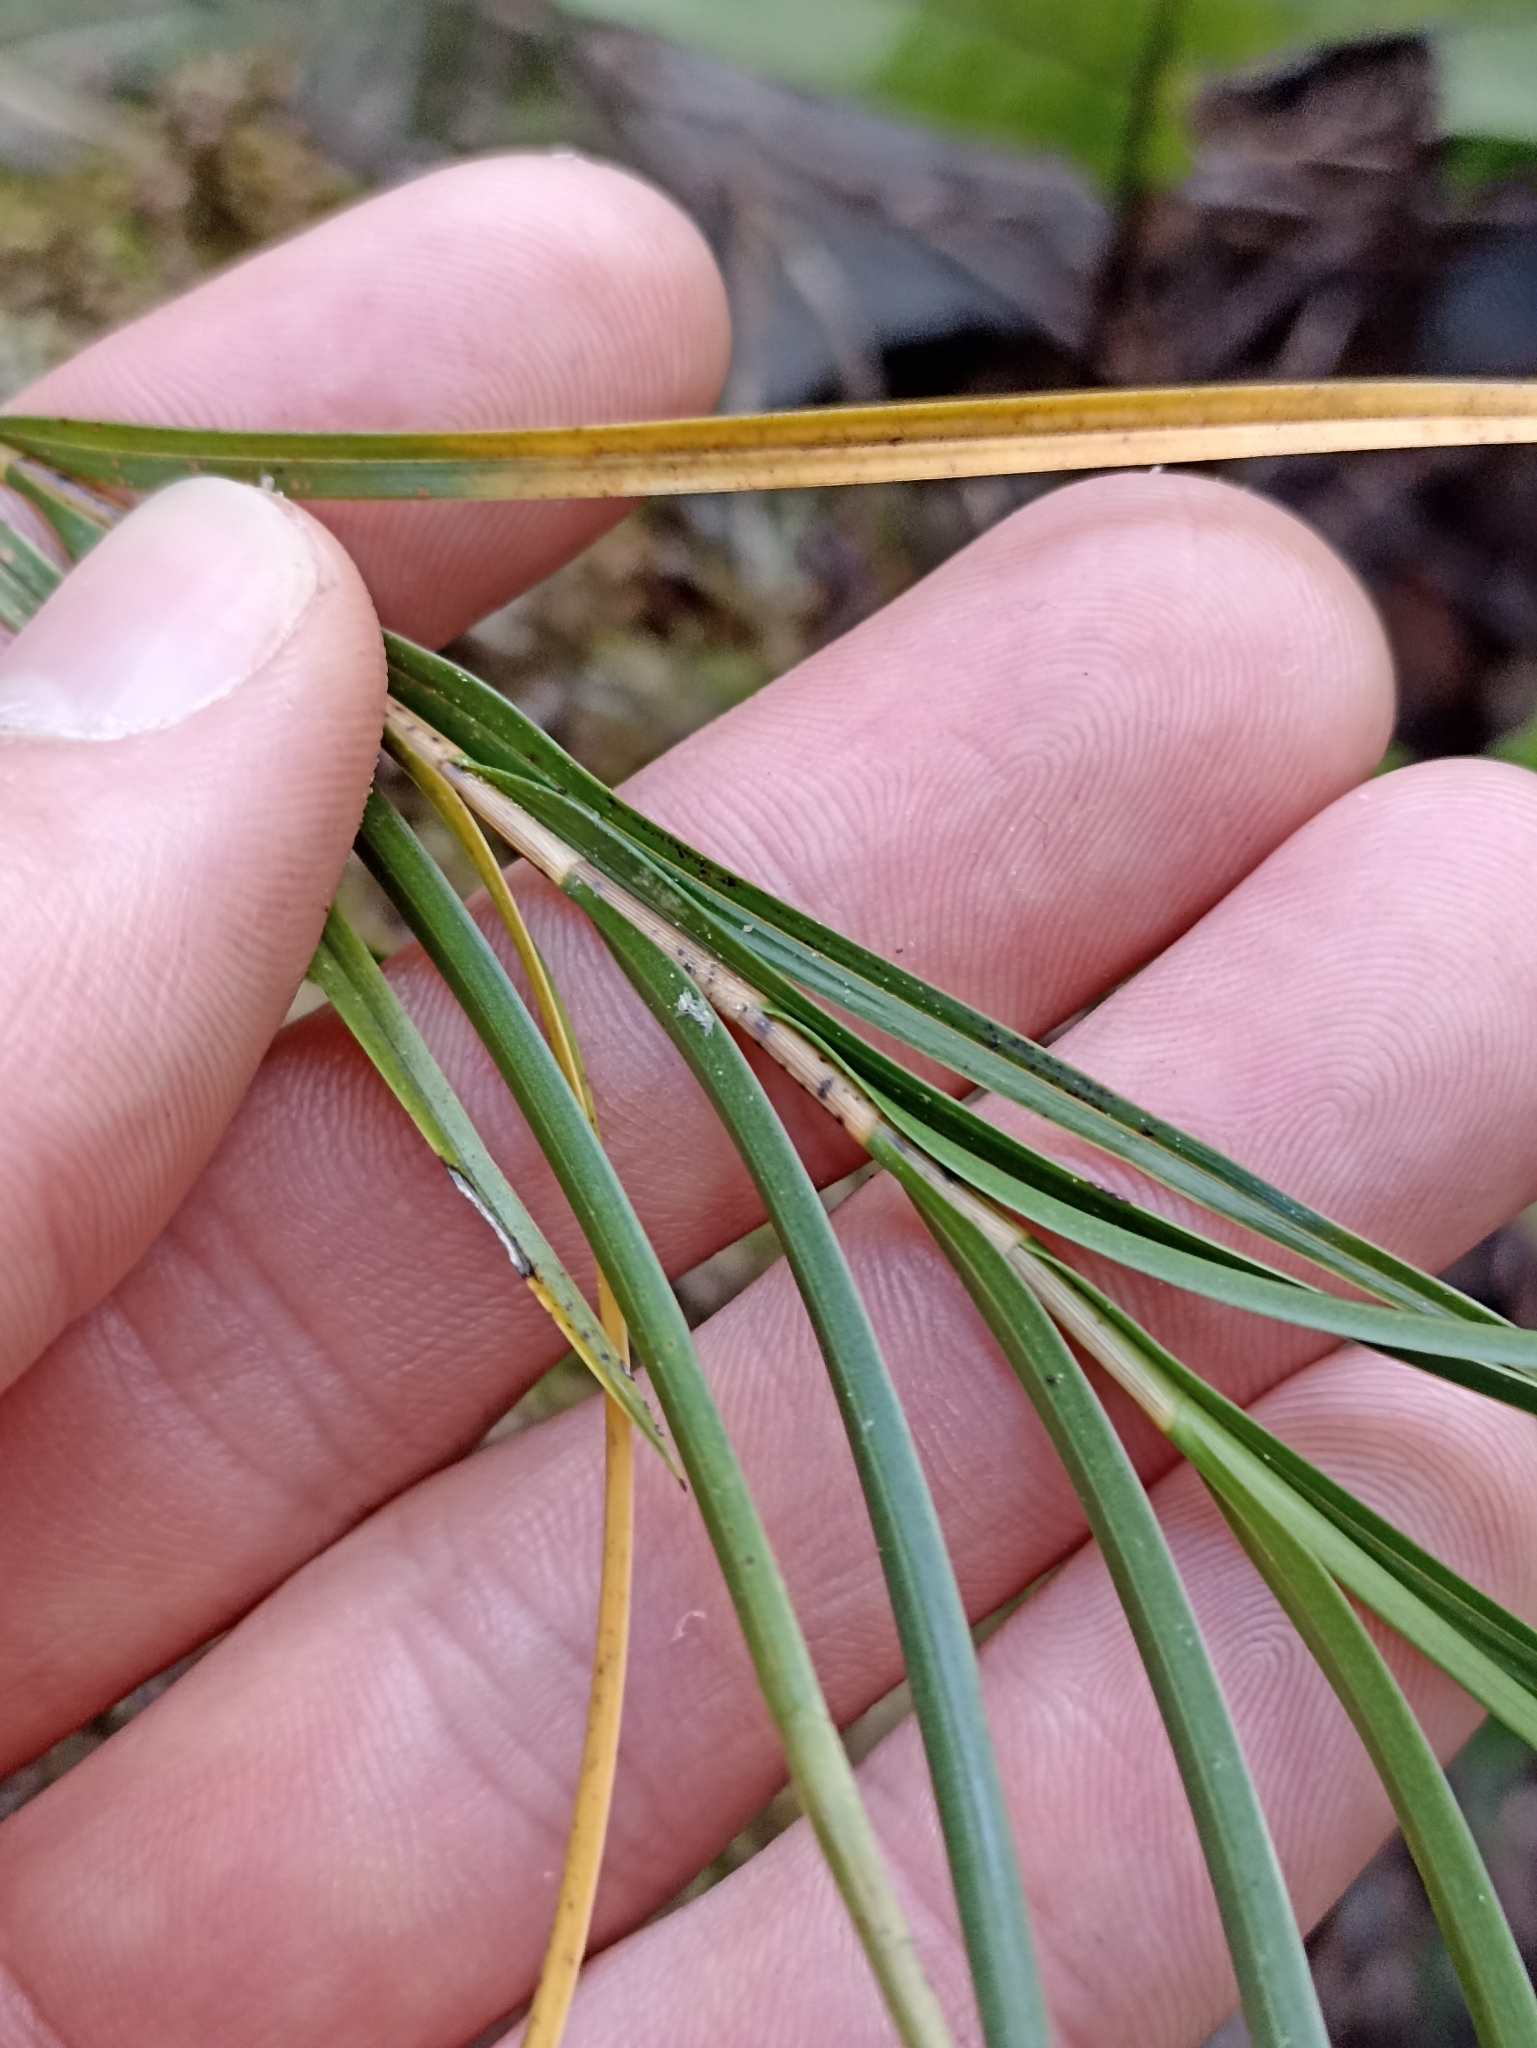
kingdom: Plantae
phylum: Tracheophyta
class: Liliopsida
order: Asparagales
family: Orchidaceae
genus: Earina
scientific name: Earina mucronata
